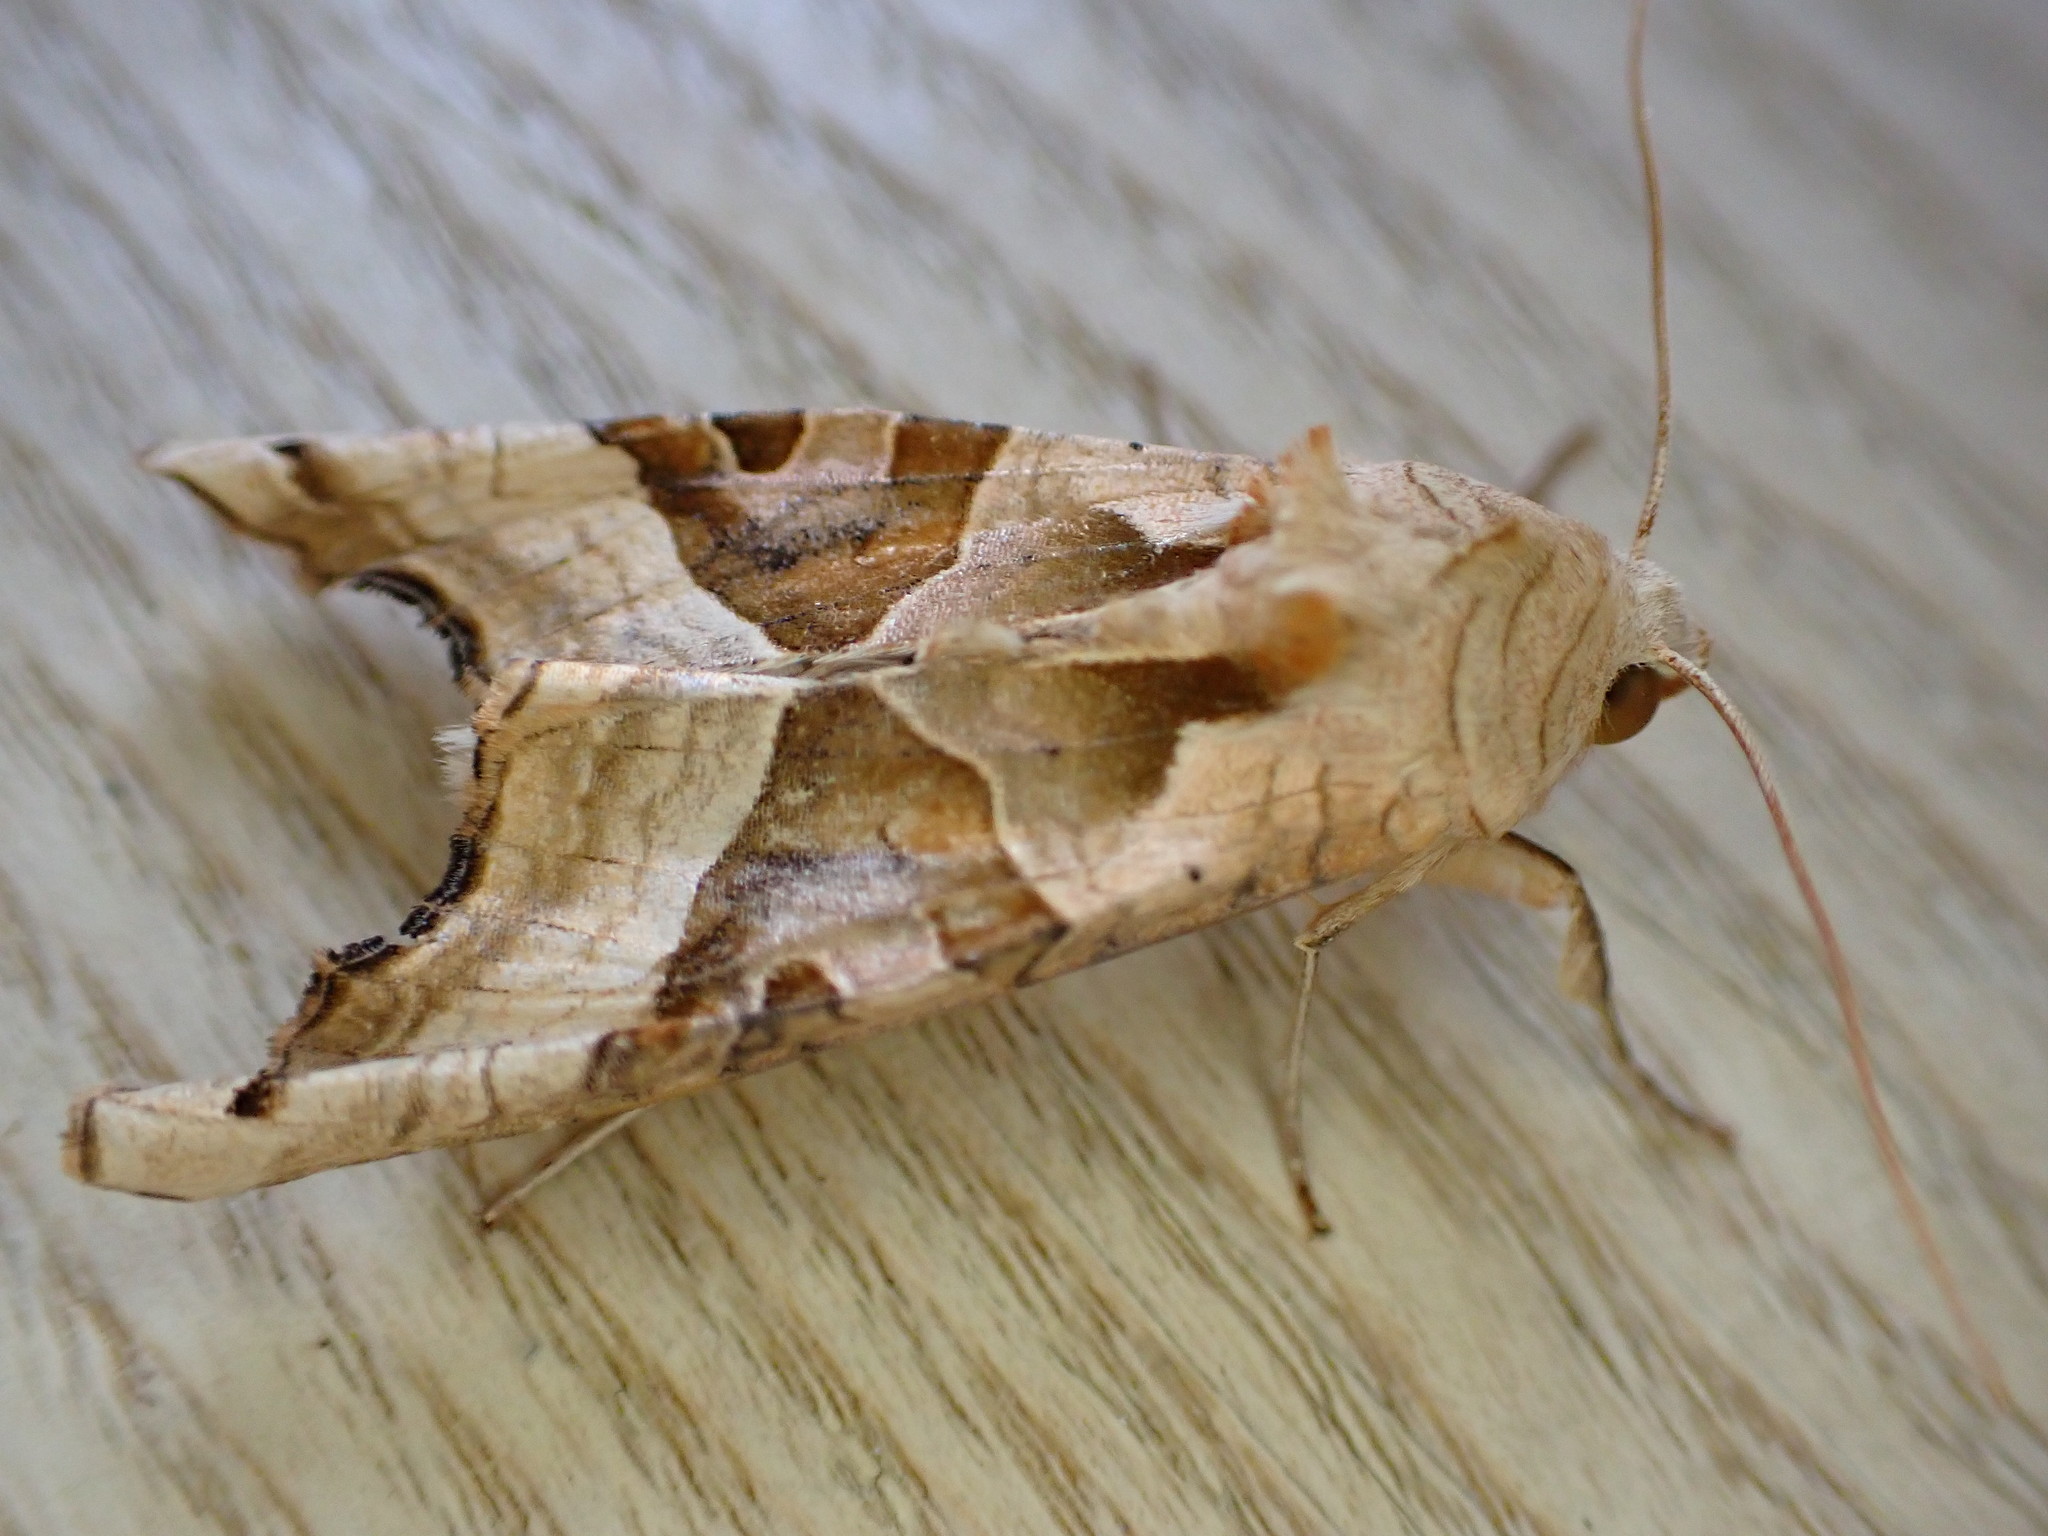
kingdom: Animalia
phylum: Arthropoda
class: Insecta
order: Lepidoptera
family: Noctuidae
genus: Phlogophora
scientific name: Phlogophora meticulosa
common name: Angle shades
